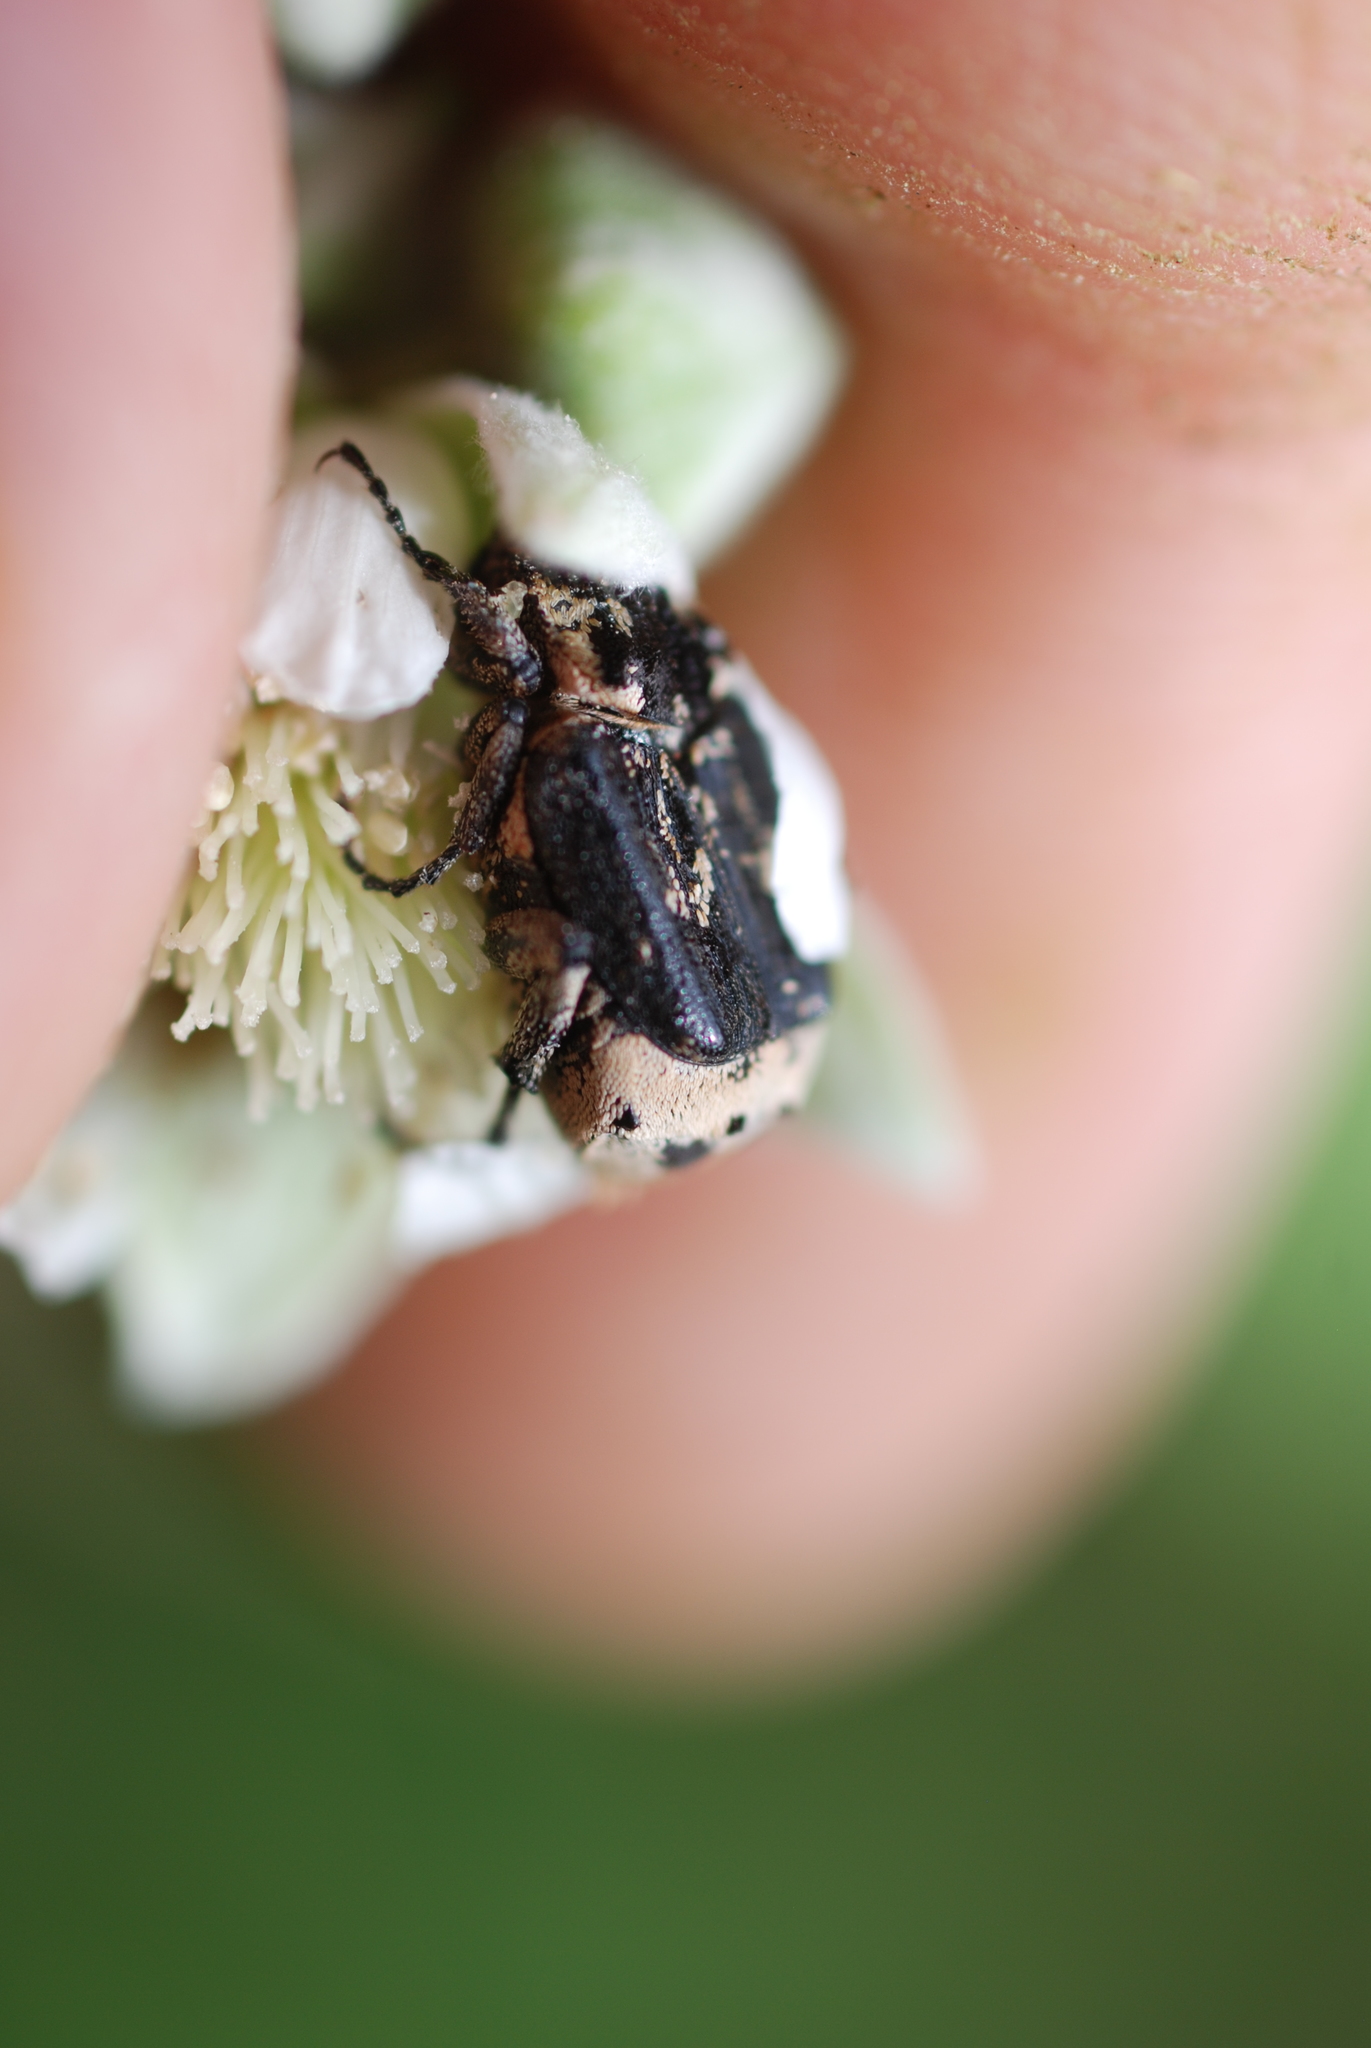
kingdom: Animalia
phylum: Arthropoda
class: Insecta
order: Coleoptera
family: Scarabaeidae
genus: Valgus
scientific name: Valgus hemipterus
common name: Bug flower chafer
